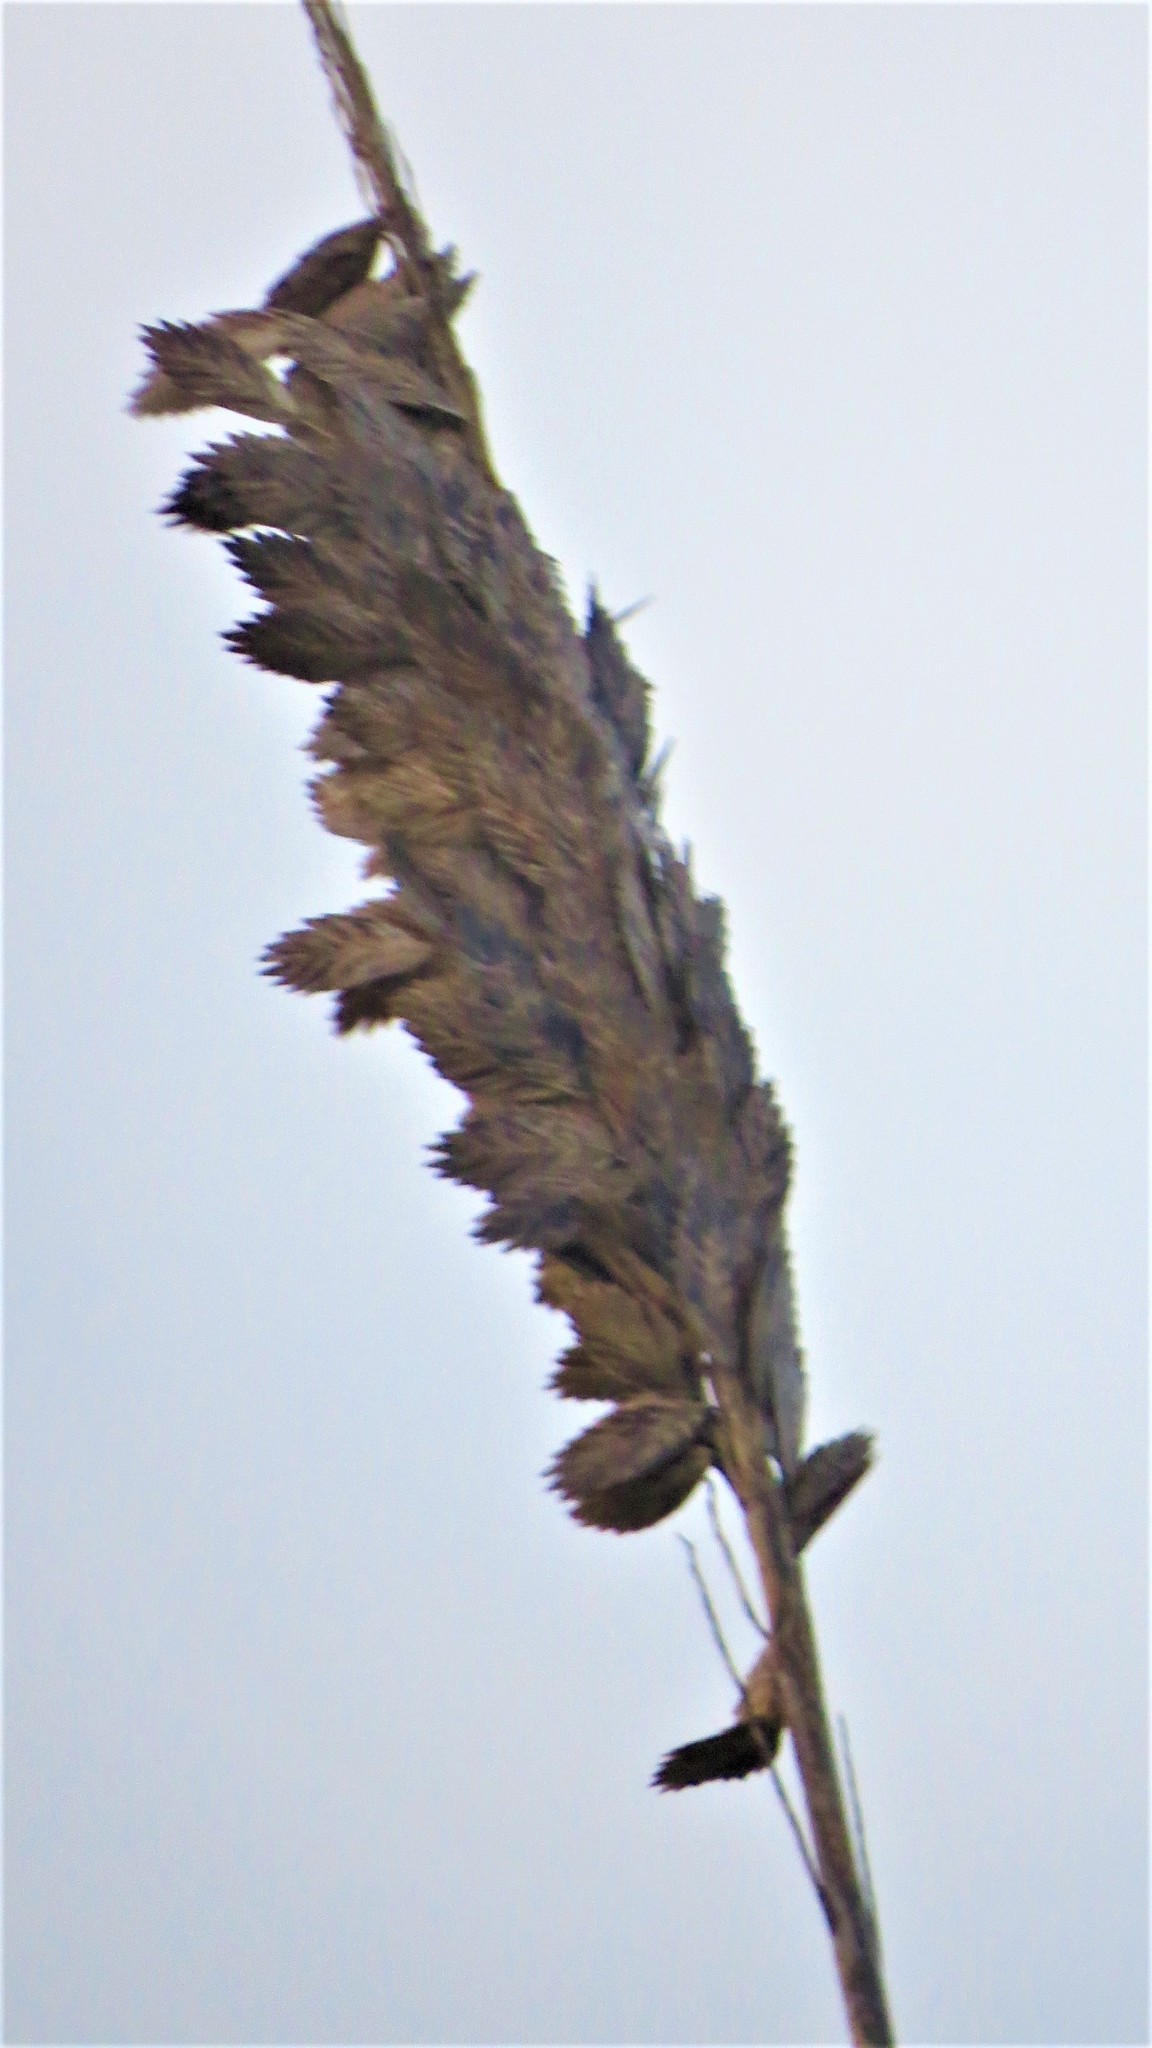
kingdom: Plantae
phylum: Tracheophyta
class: Liliopsida
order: Poales
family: Poaceae
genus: Uniola
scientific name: Uniola paniculata
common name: Seaside-oats
